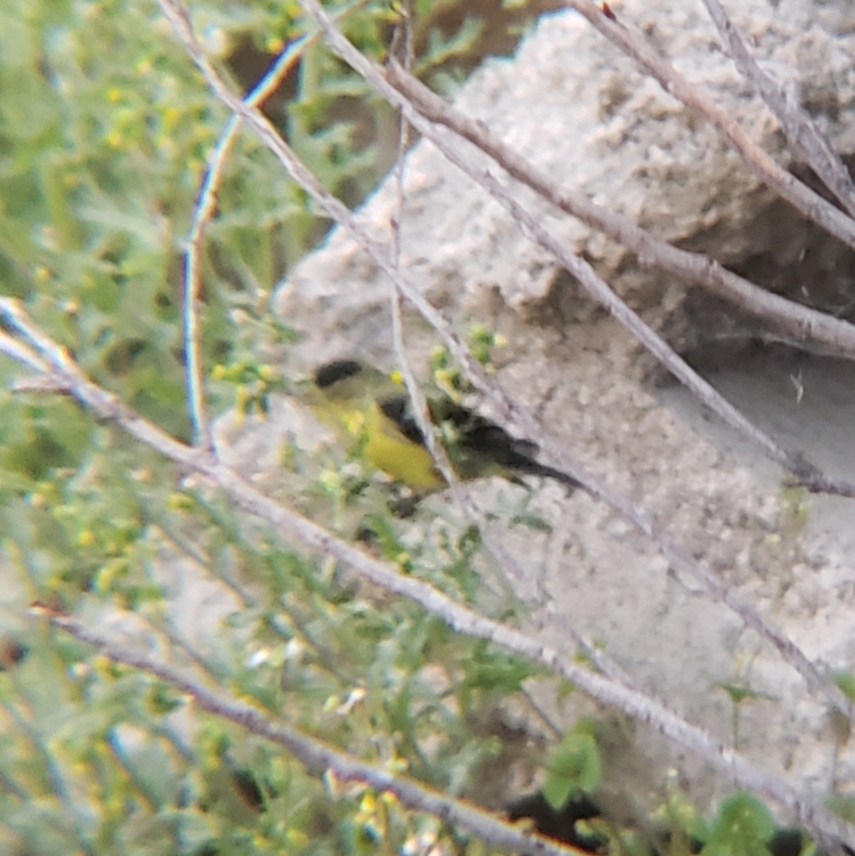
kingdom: Animalia
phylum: Chordata
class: Aves
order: Passeriformes
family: Fringillidae
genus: Spinus
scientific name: Spinus psaltria
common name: Lesser goldfinch
